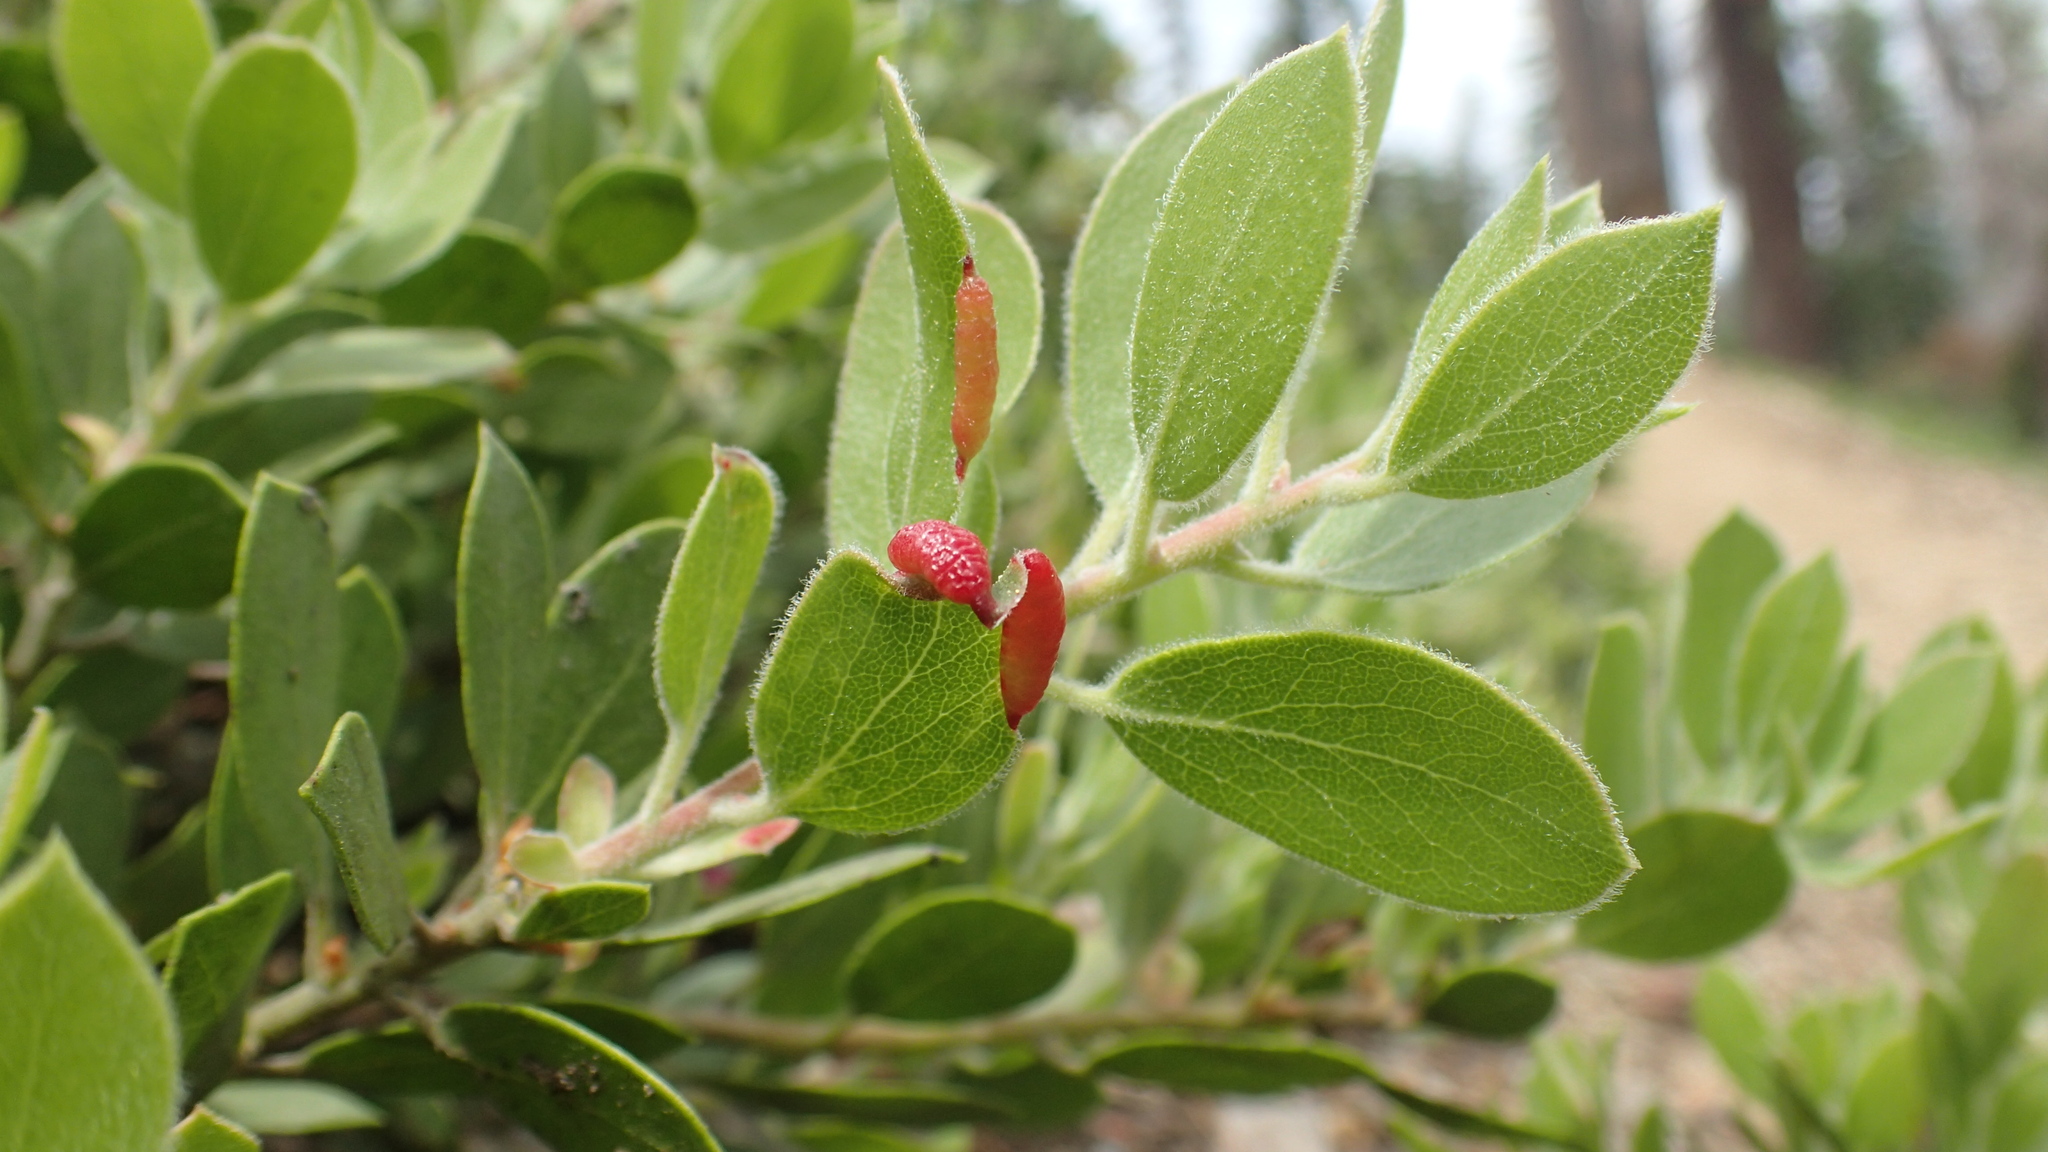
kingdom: Animalia
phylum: Arthropoda
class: Insecta
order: Hemiptera
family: Aphididae
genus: Tamalia
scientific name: Tamalia coweni
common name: Manzanita leafgall aphid
